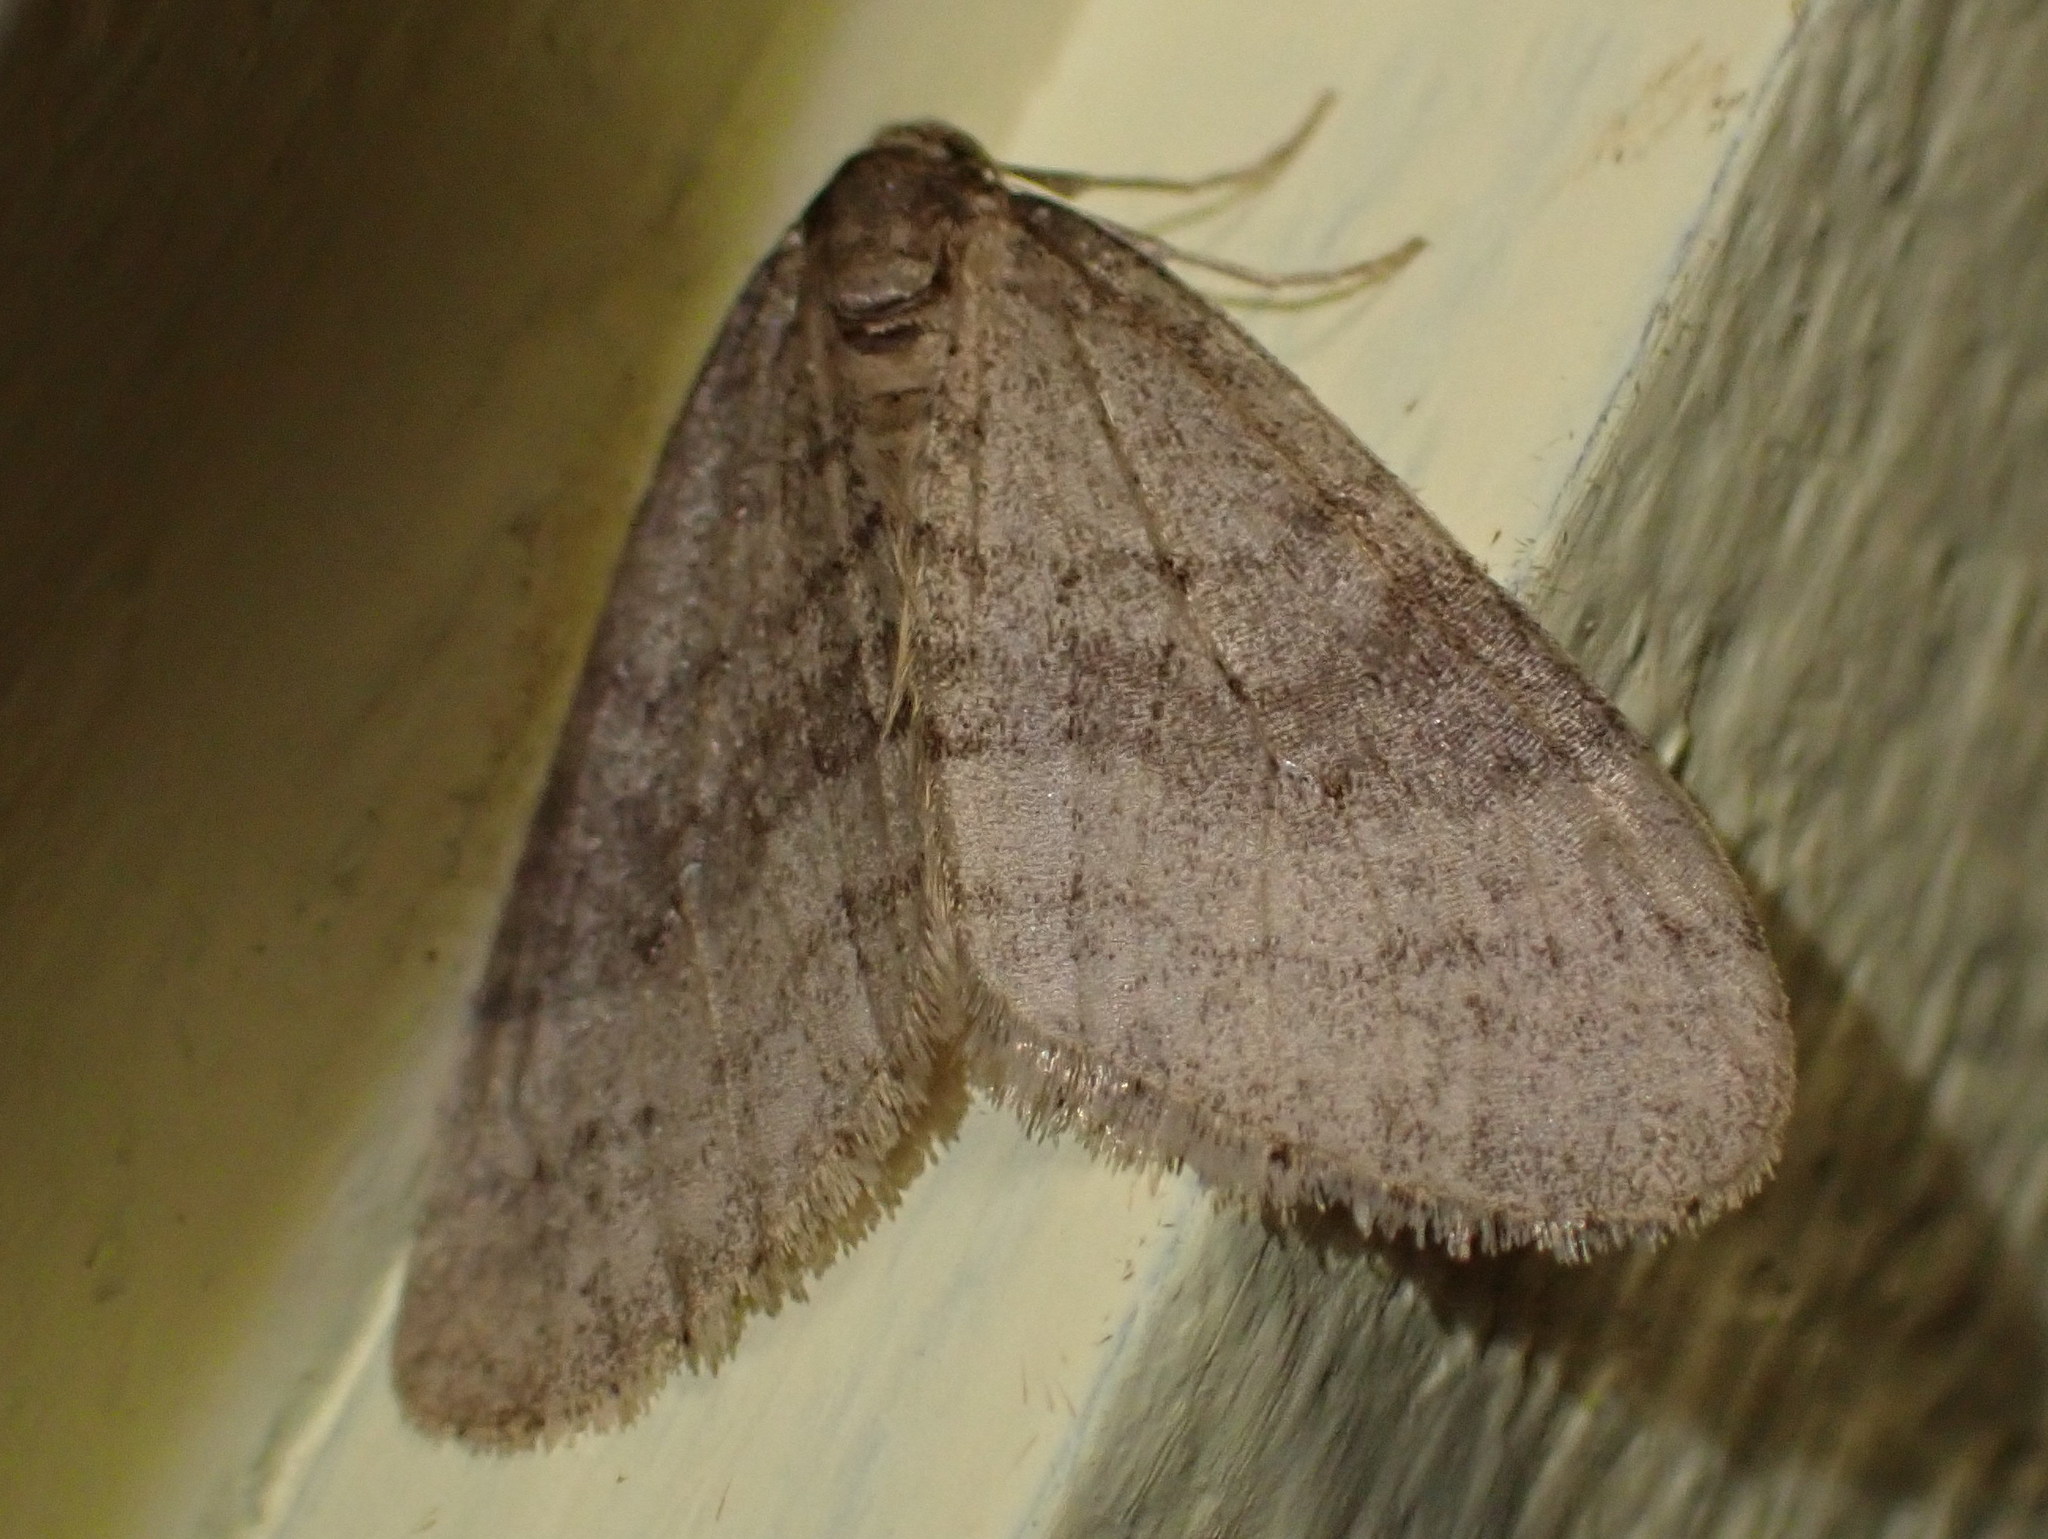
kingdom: Animalia
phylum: Arthropoda
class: Insecta
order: Lepidoptera
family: Geometridae
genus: Operophtera
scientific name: Operophtera bruceata
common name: Bruce spanworm
